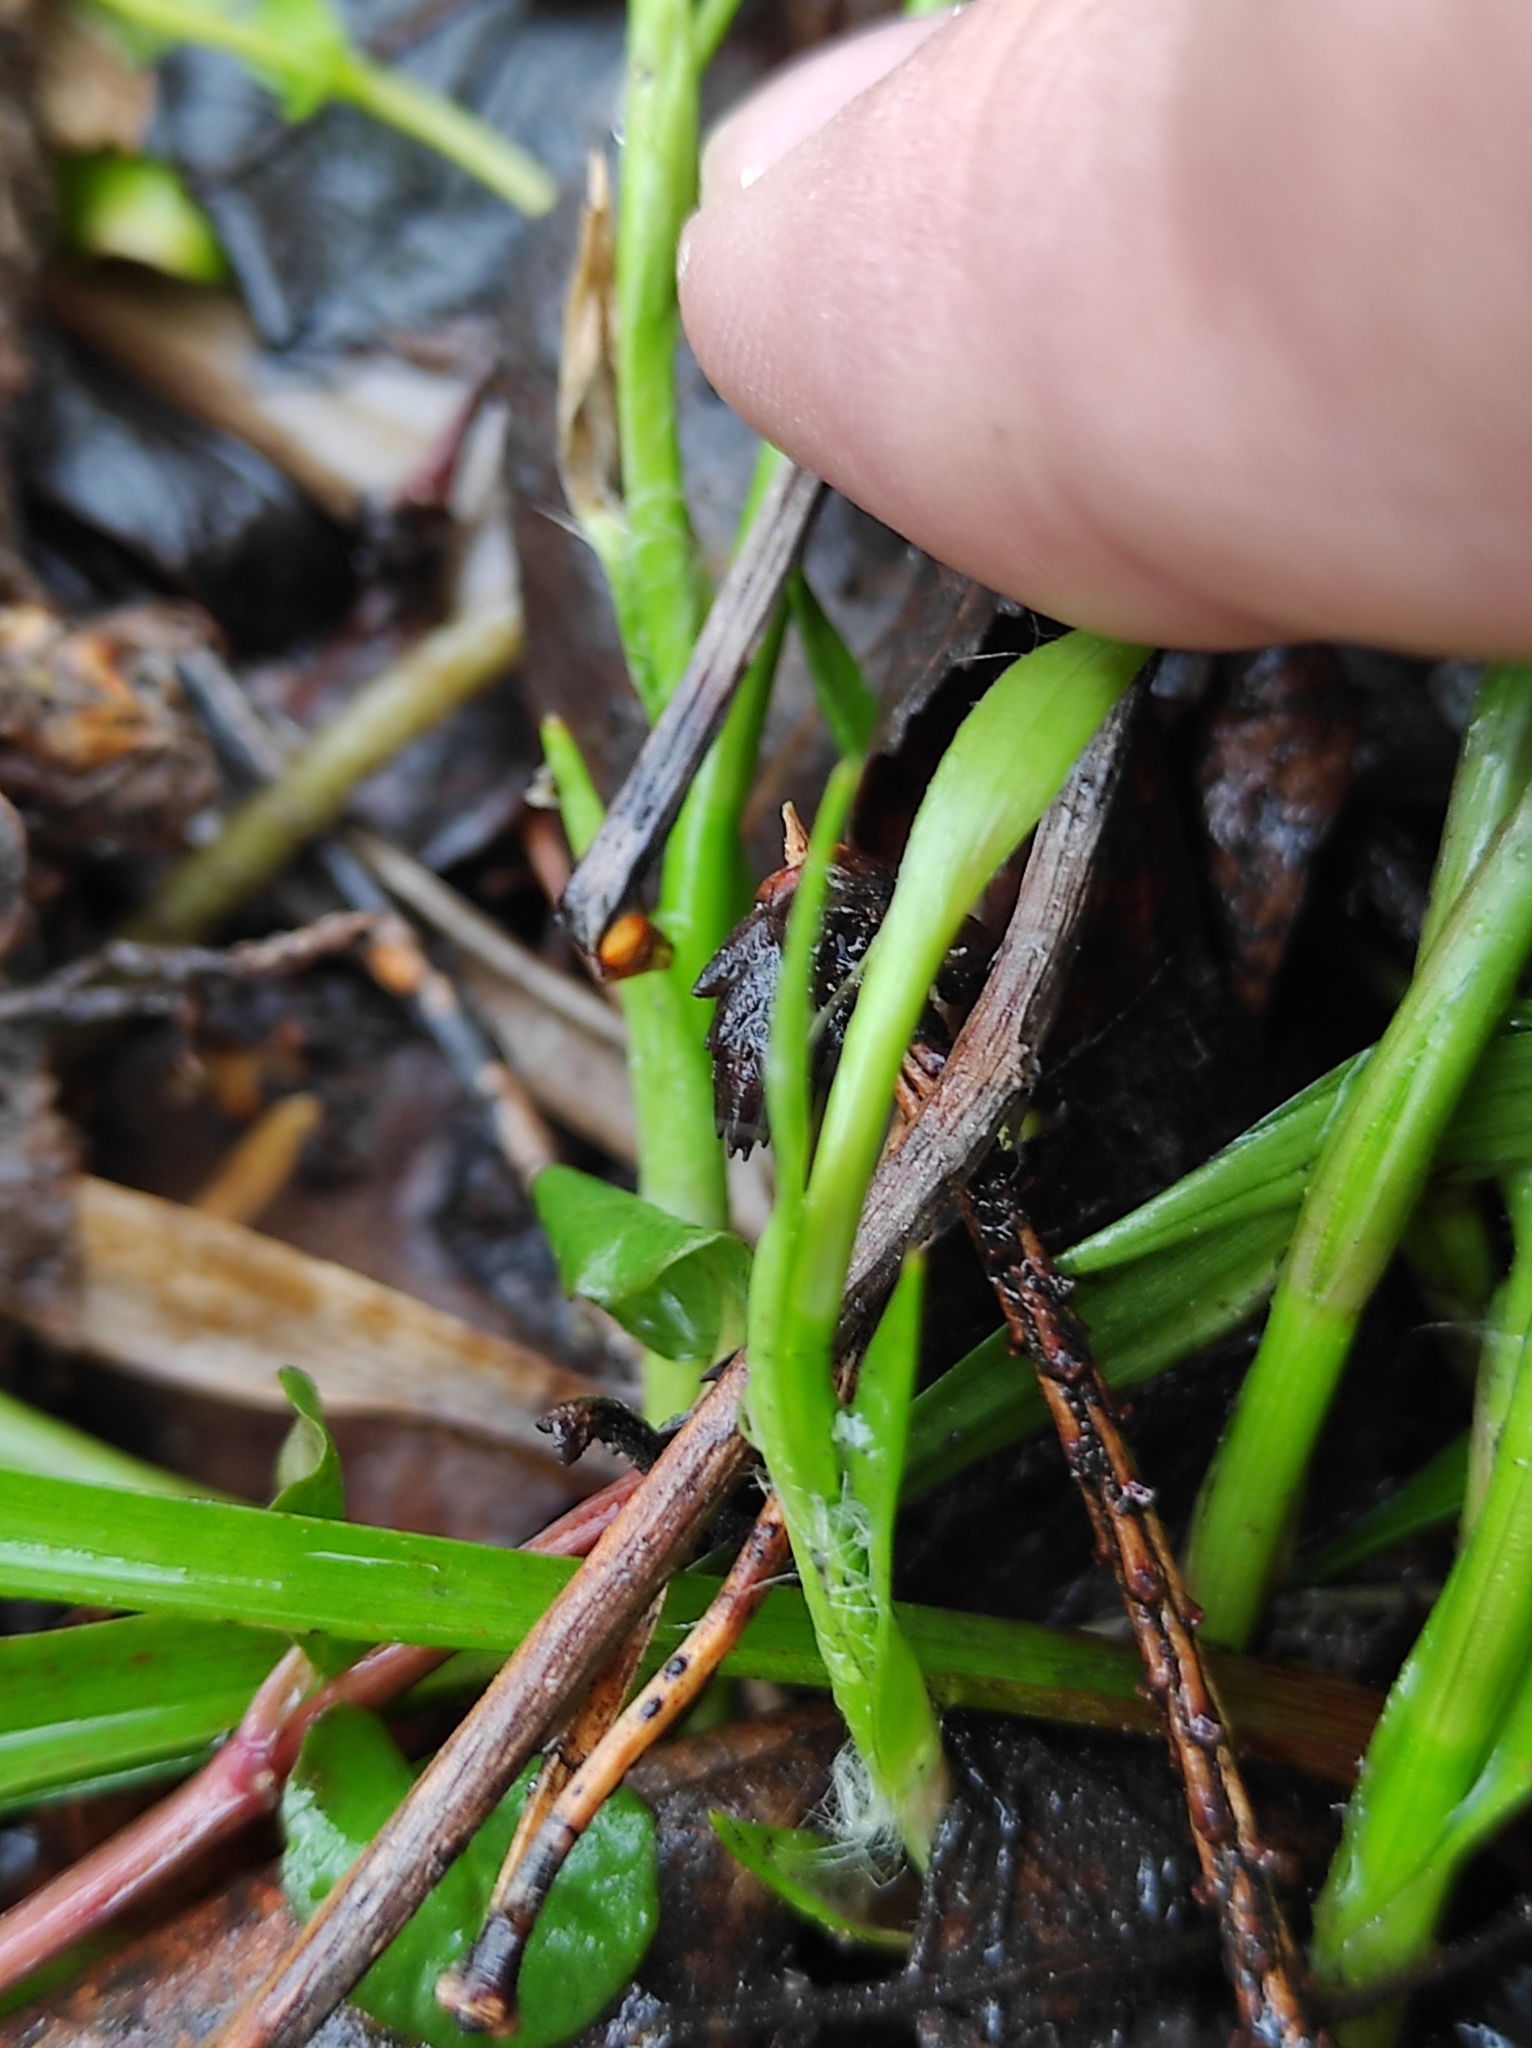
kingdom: Plantae
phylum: Tracheophyta
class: Liliopsida
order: Poales
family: Juncaceae
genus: Luzula
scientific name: Luzula pilosa
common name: Hairy wood-rush
